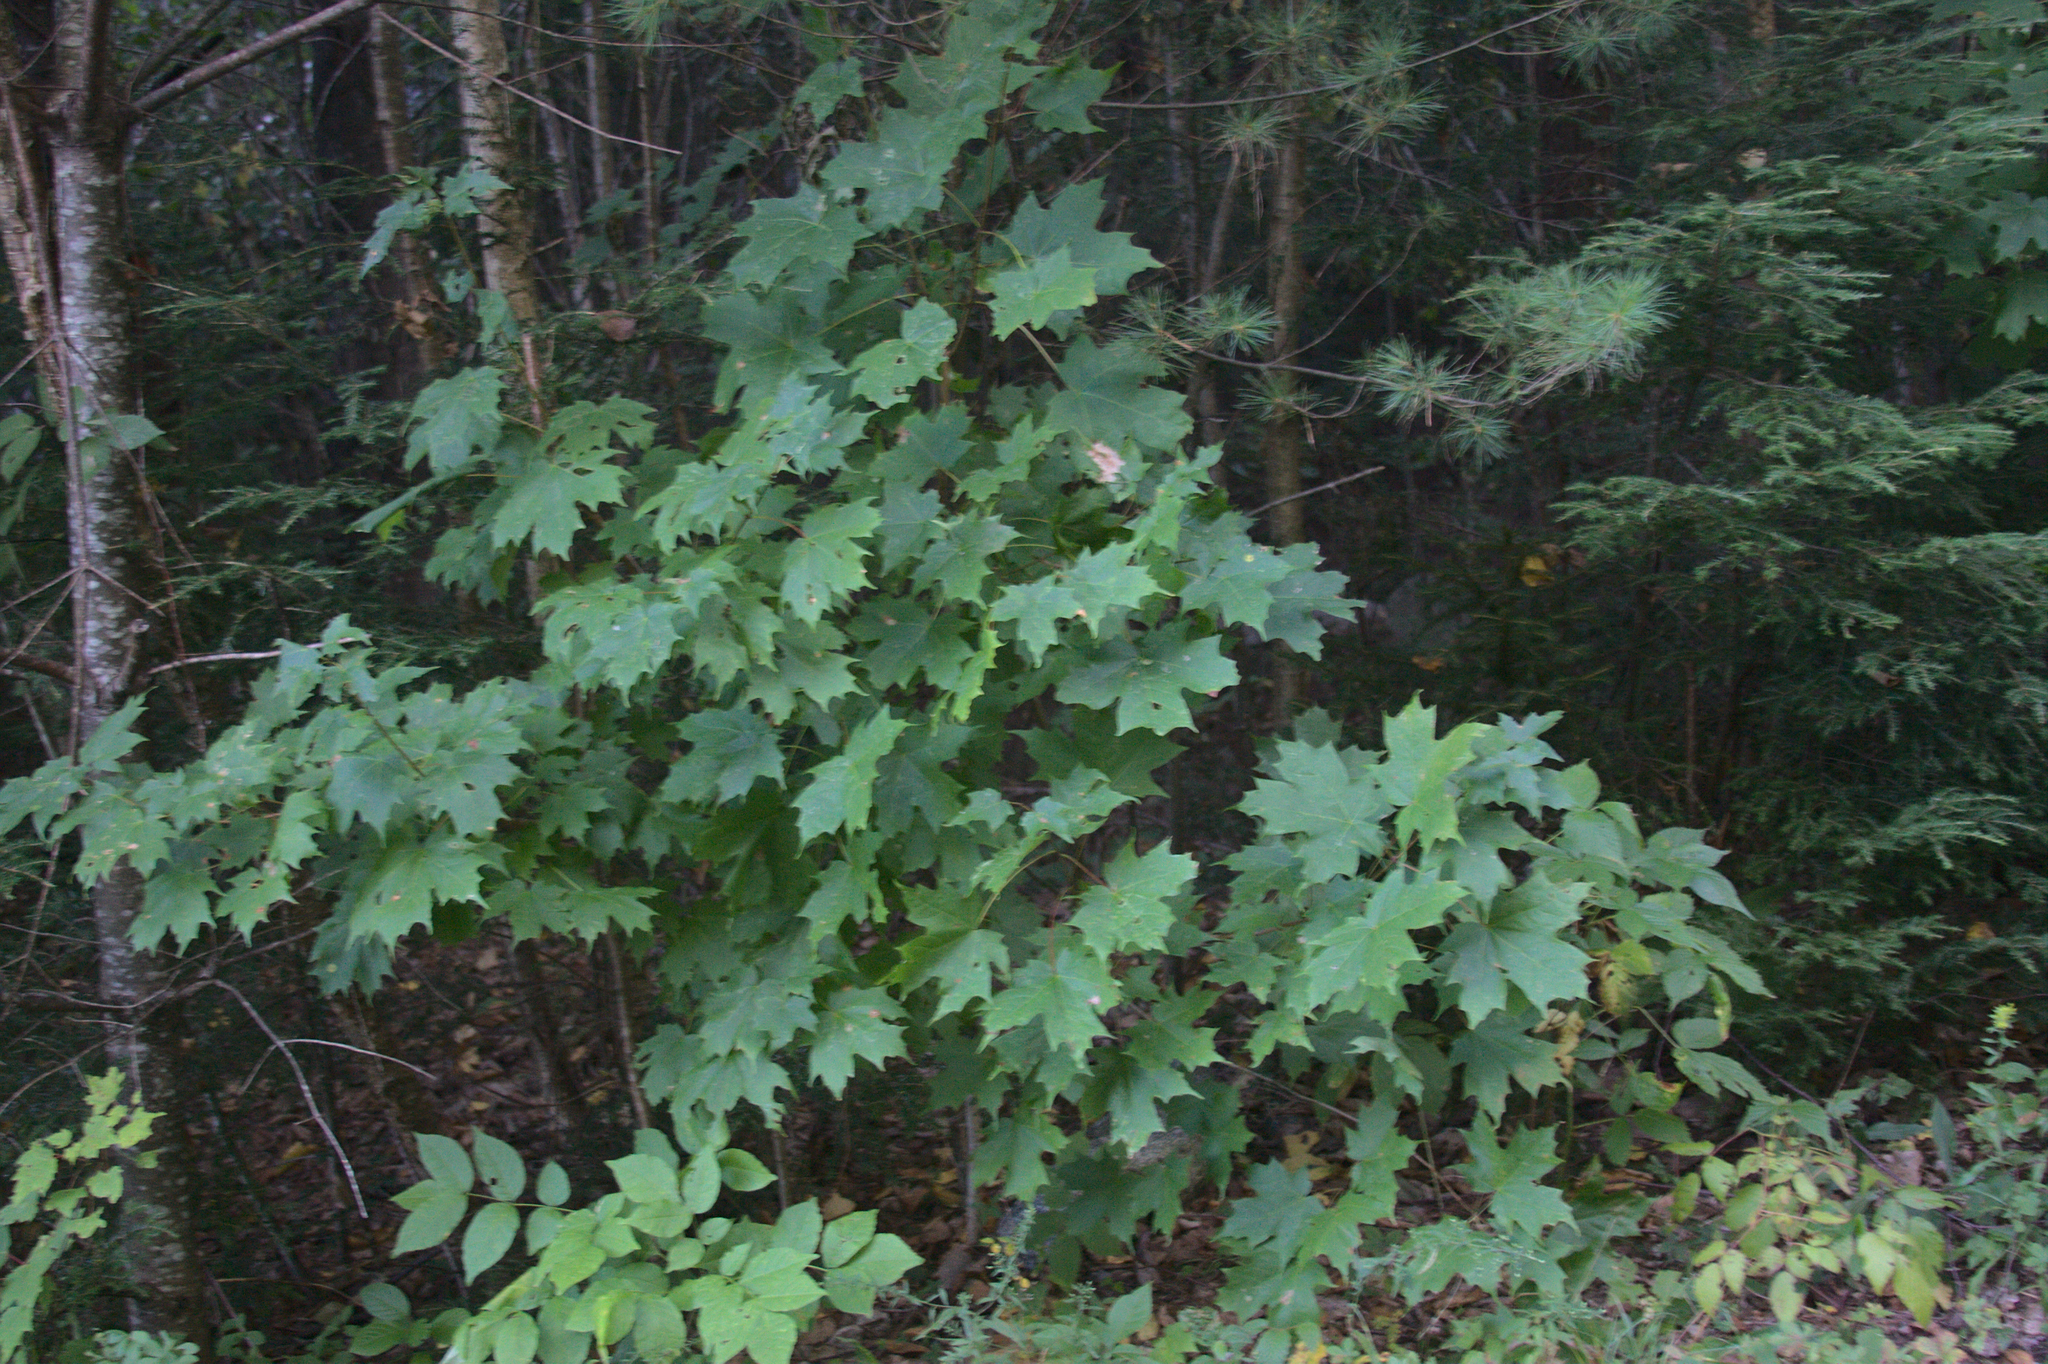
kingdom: Plantae
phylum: Tracheophyta
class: Magnoliopsida
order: Sapindales
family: Sapindaceae
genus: Acer
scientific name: Acer saccharum
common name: Sugar maple
